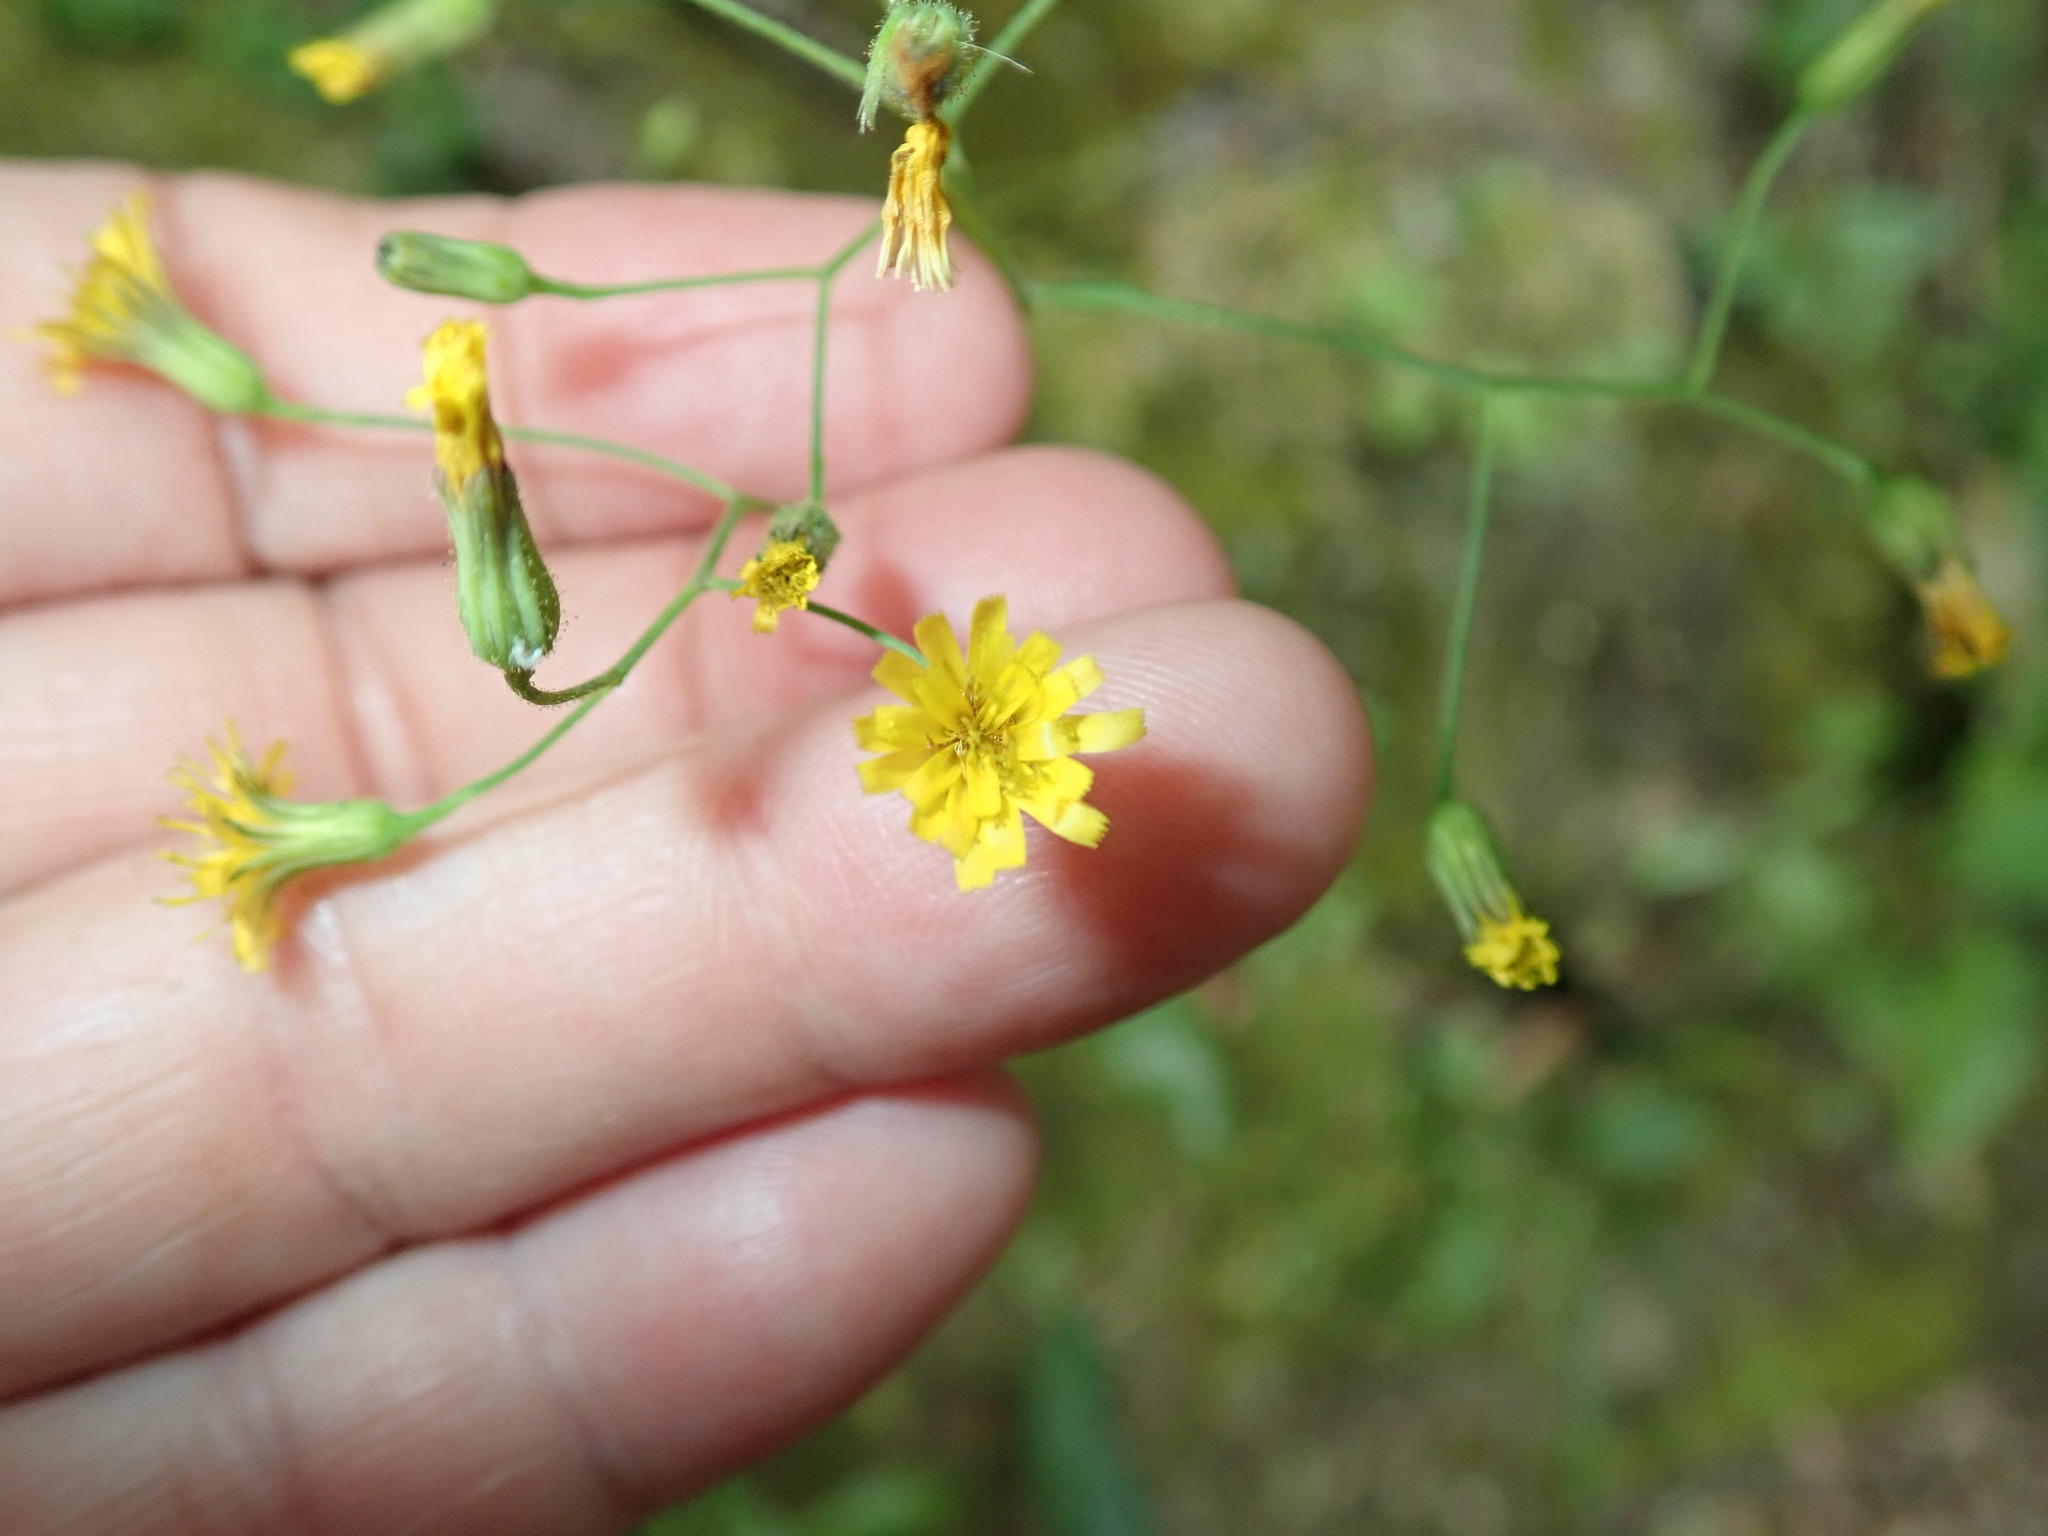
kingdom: Plantae
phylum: Tracheophyta
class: Magnoliopsida
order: Asterales
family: Asteraceae
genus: Hieracium
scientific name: Hieracium paniculatum
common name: Allegheny hawkweed
